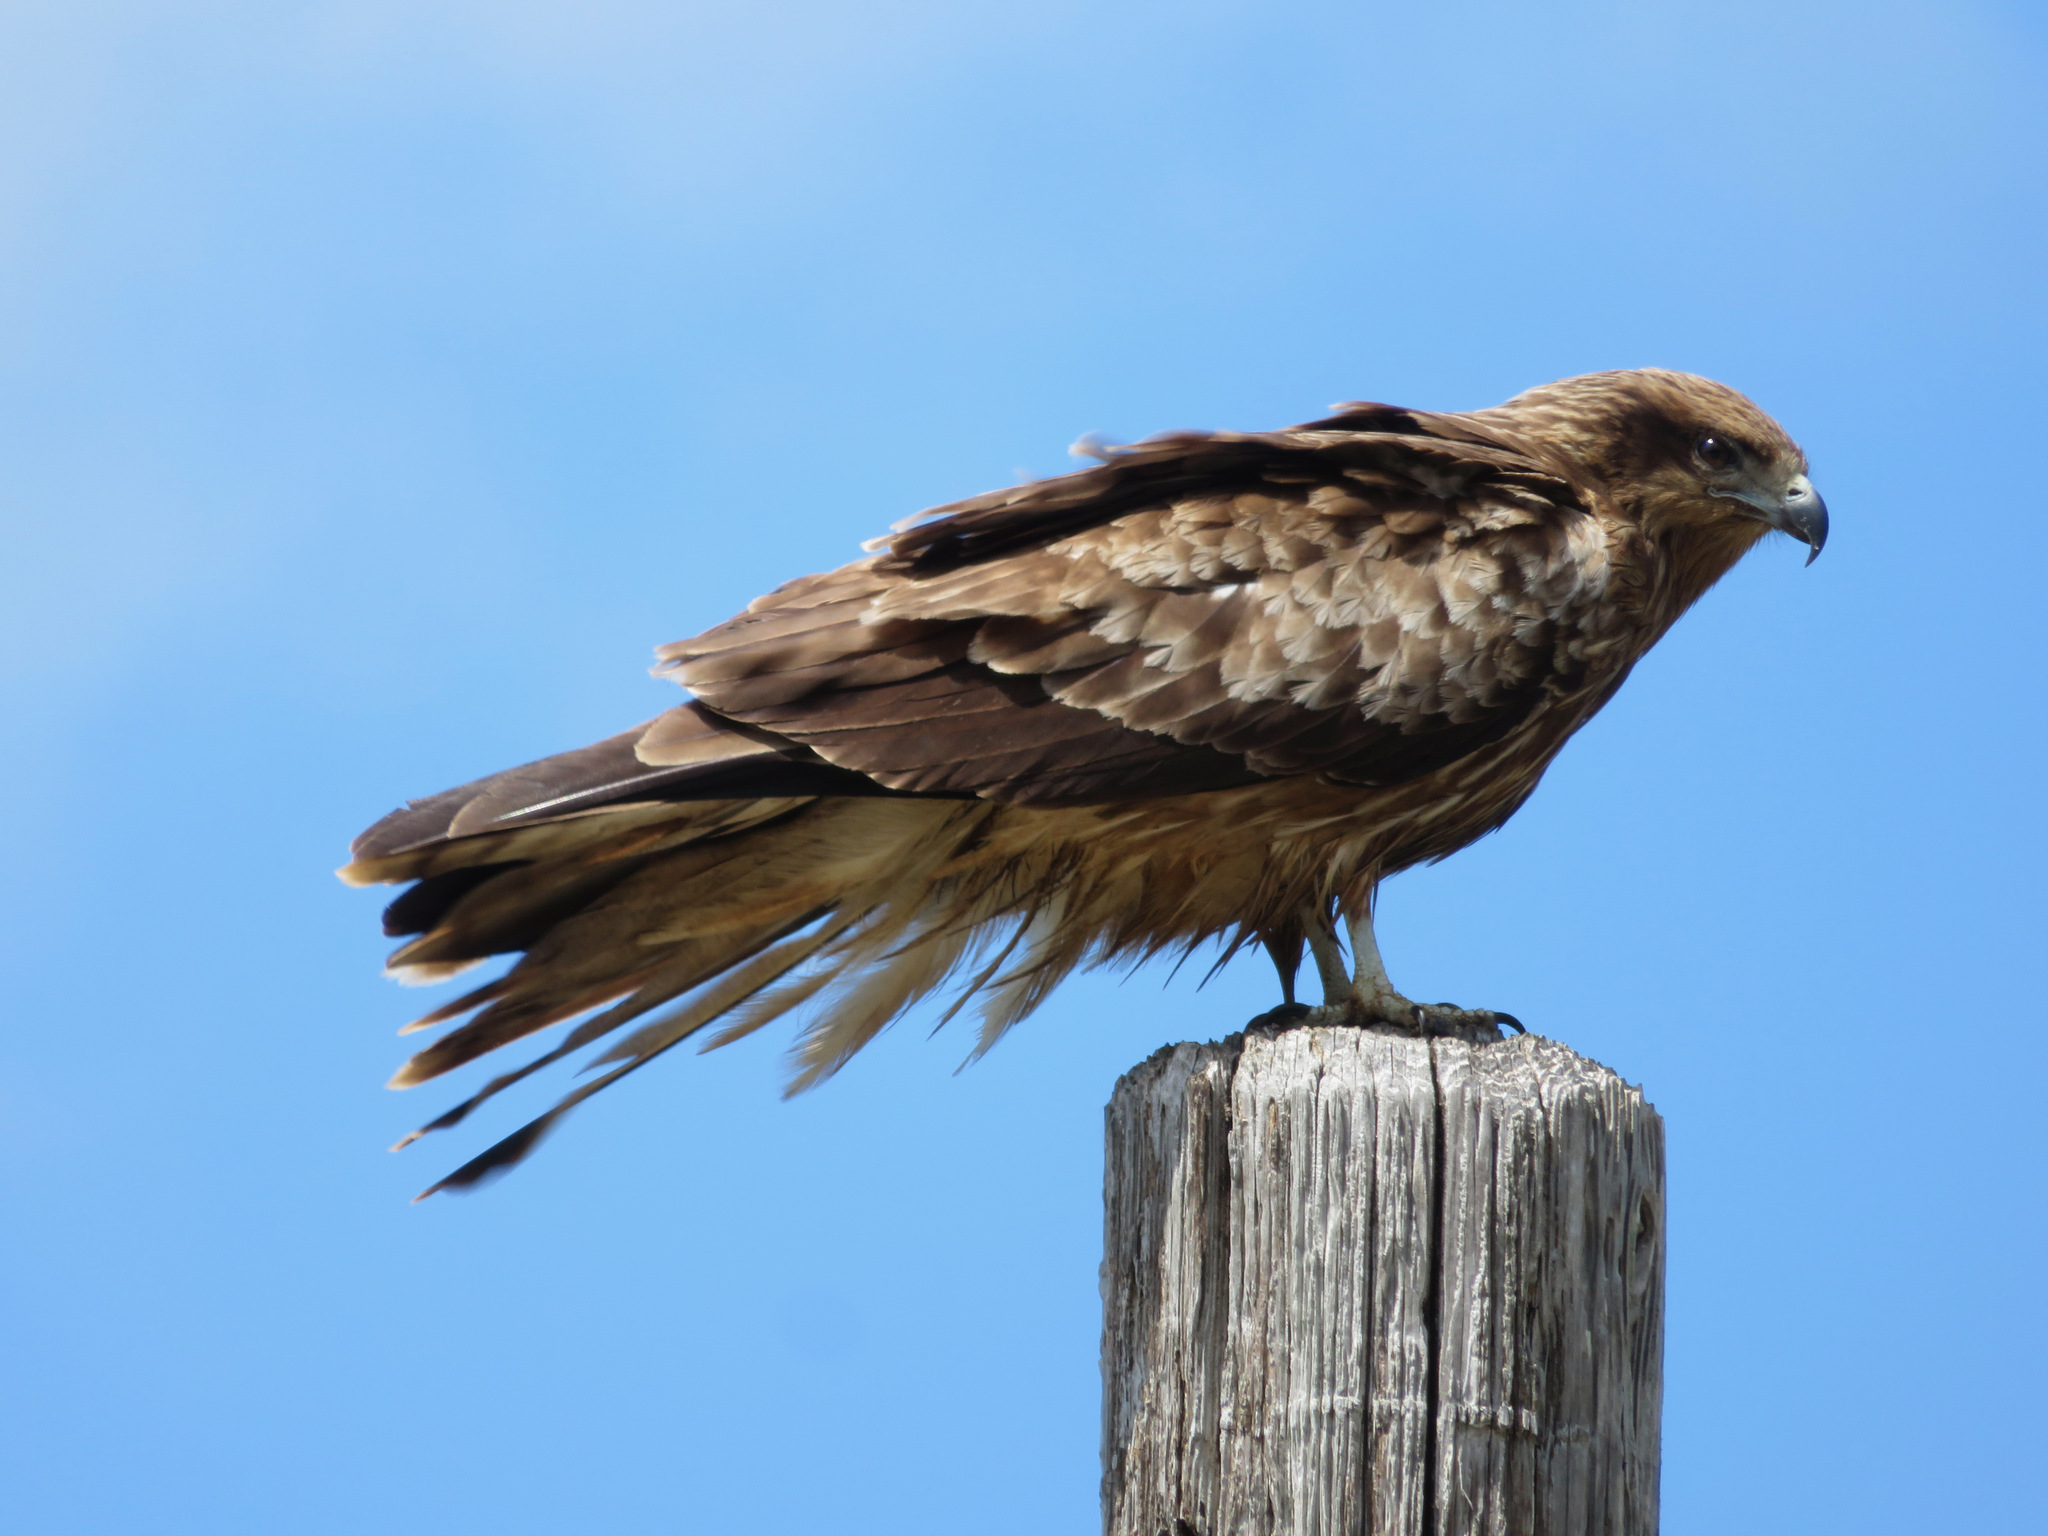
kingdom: Animalia
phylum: Chordata
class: Aves
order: Accipitriformes
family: Accipitridae
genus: Milvus
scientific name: Milvus migrans
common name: Black kite
